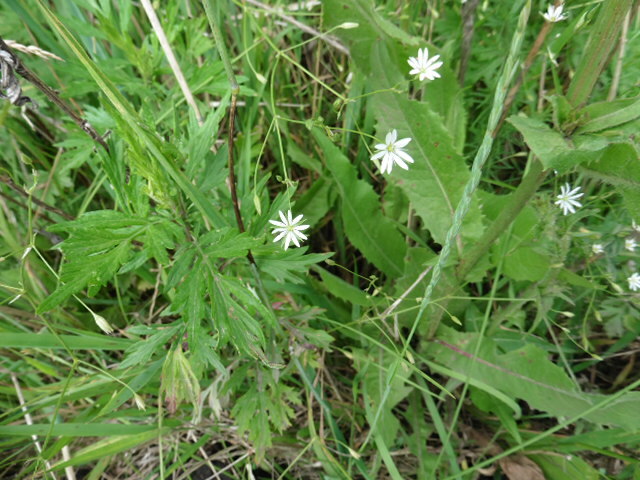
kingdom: Plantae
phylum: Tracheophyta
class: Magnoliopsida
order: Caryophyllales
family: Caryophyllaceae
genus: Stellaria
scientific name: Stellaria graminea
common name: Grass-like starwort
